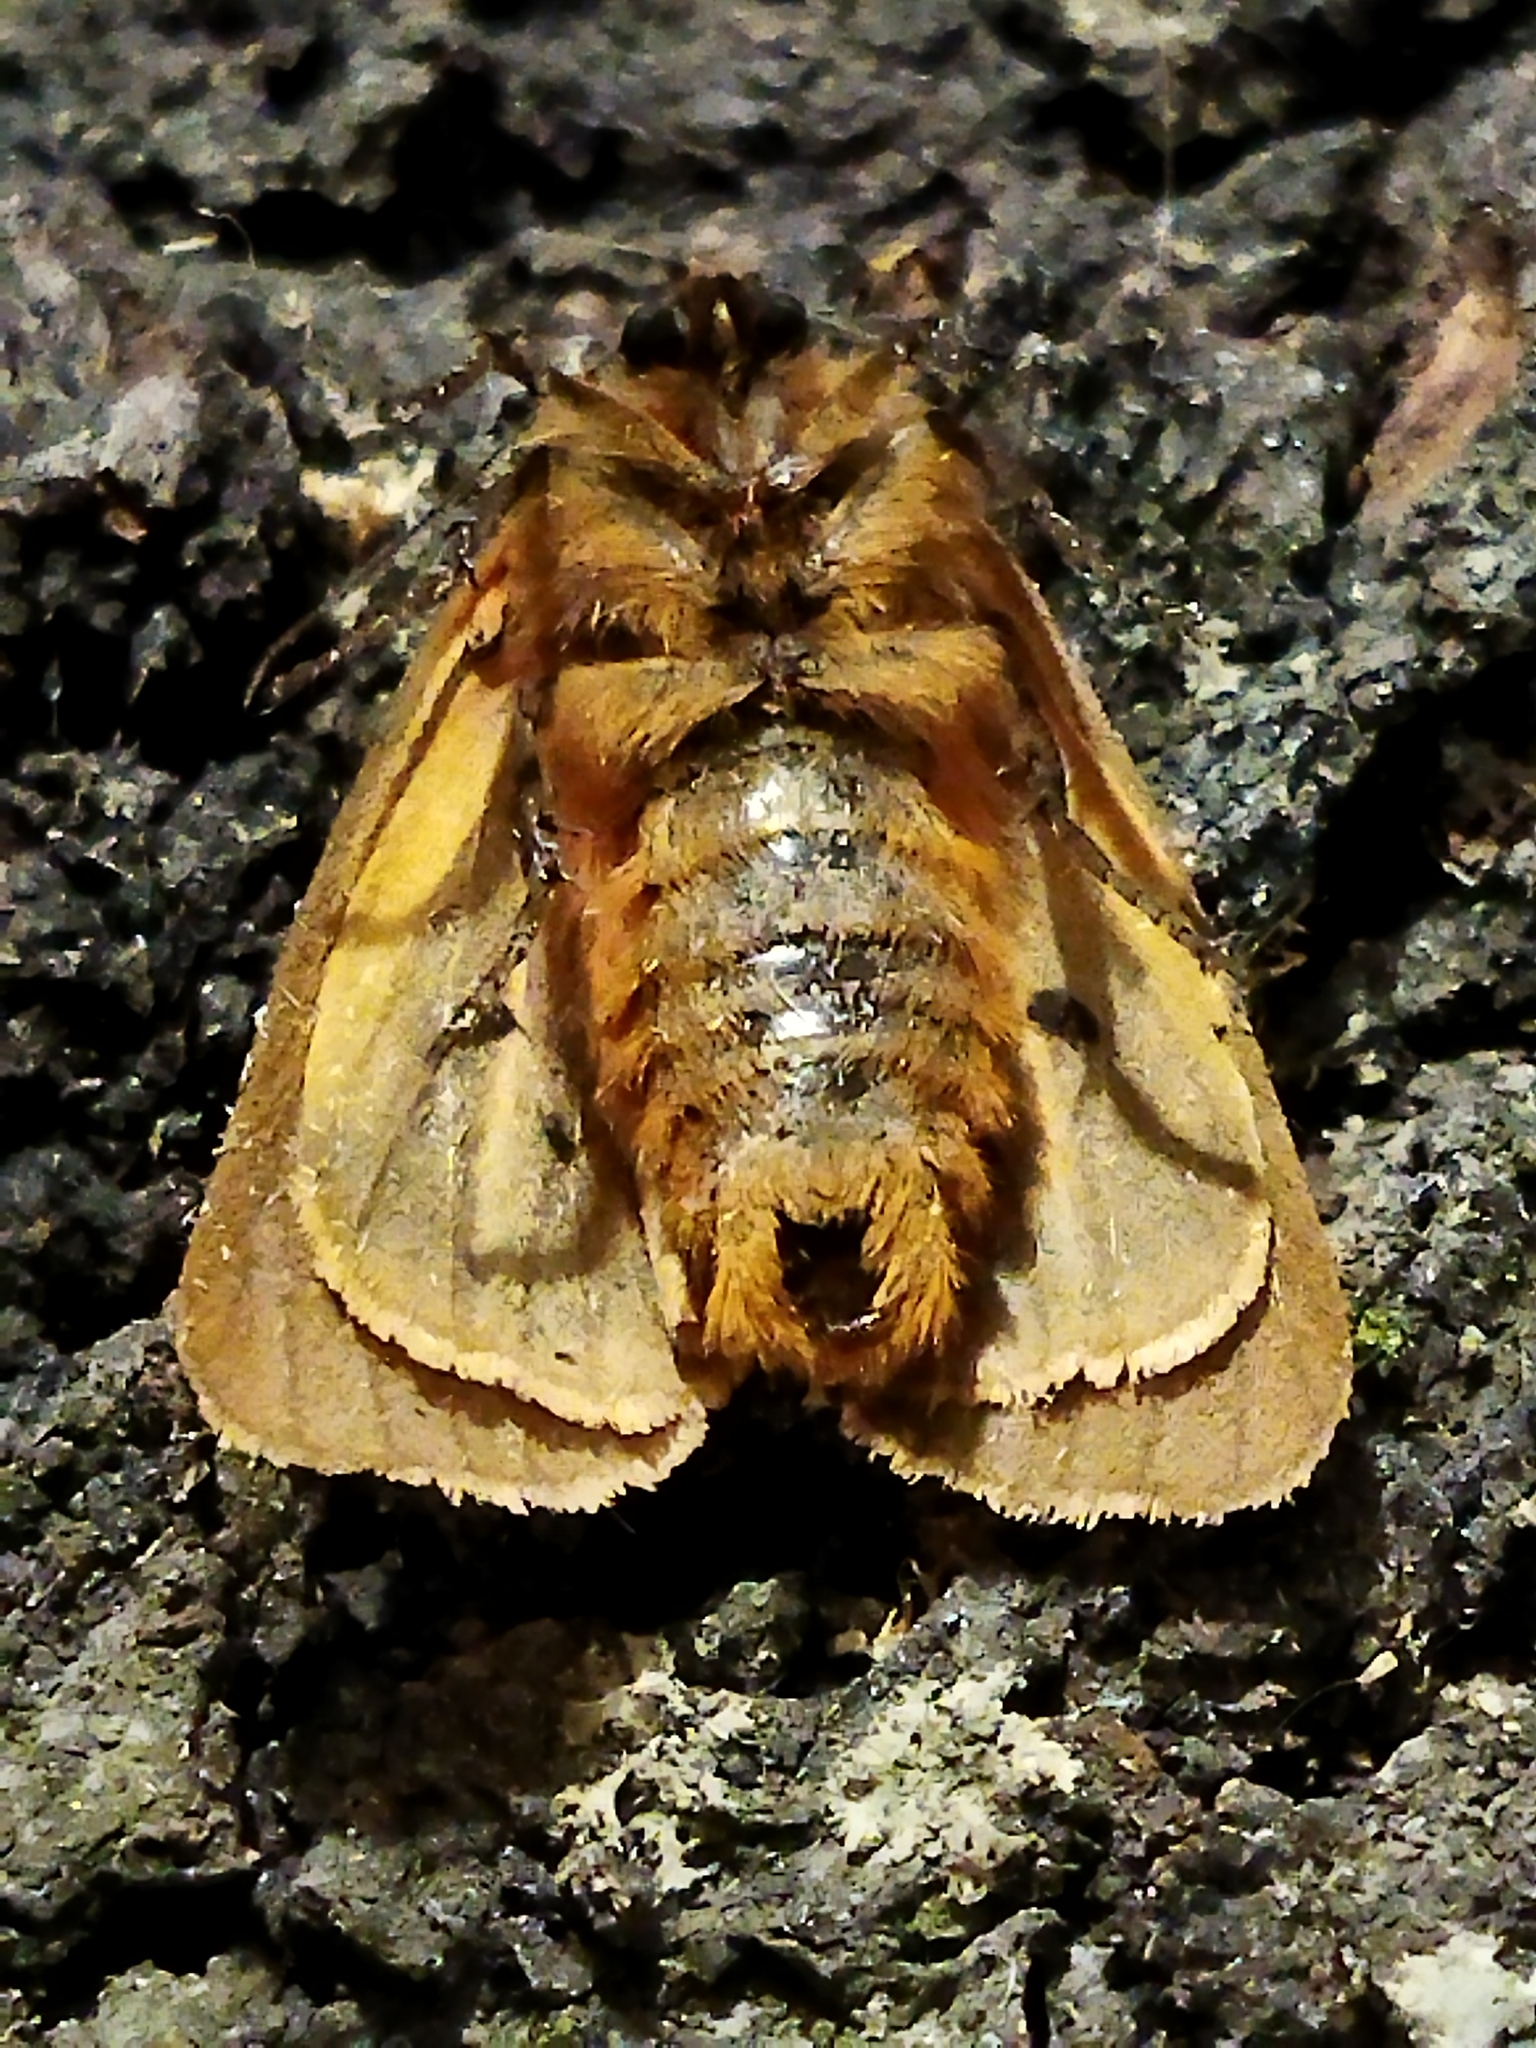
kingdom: Animalia
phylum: Arthropoda
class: Insecta
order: Lepidoptera
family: Erebidae
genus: Phragmatobia
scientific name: Phragmatobia fuliginosa
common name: Ruby tiger
